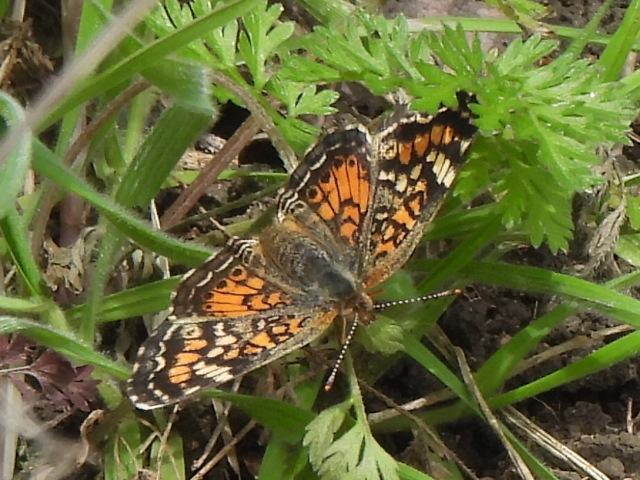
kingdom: Animalia
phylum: Arthropoda
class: Insecta
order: Lepidoptera
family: Nymphalidae
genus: Phyciodes
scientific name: Phyciodes phaon
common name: Phaon crescent
